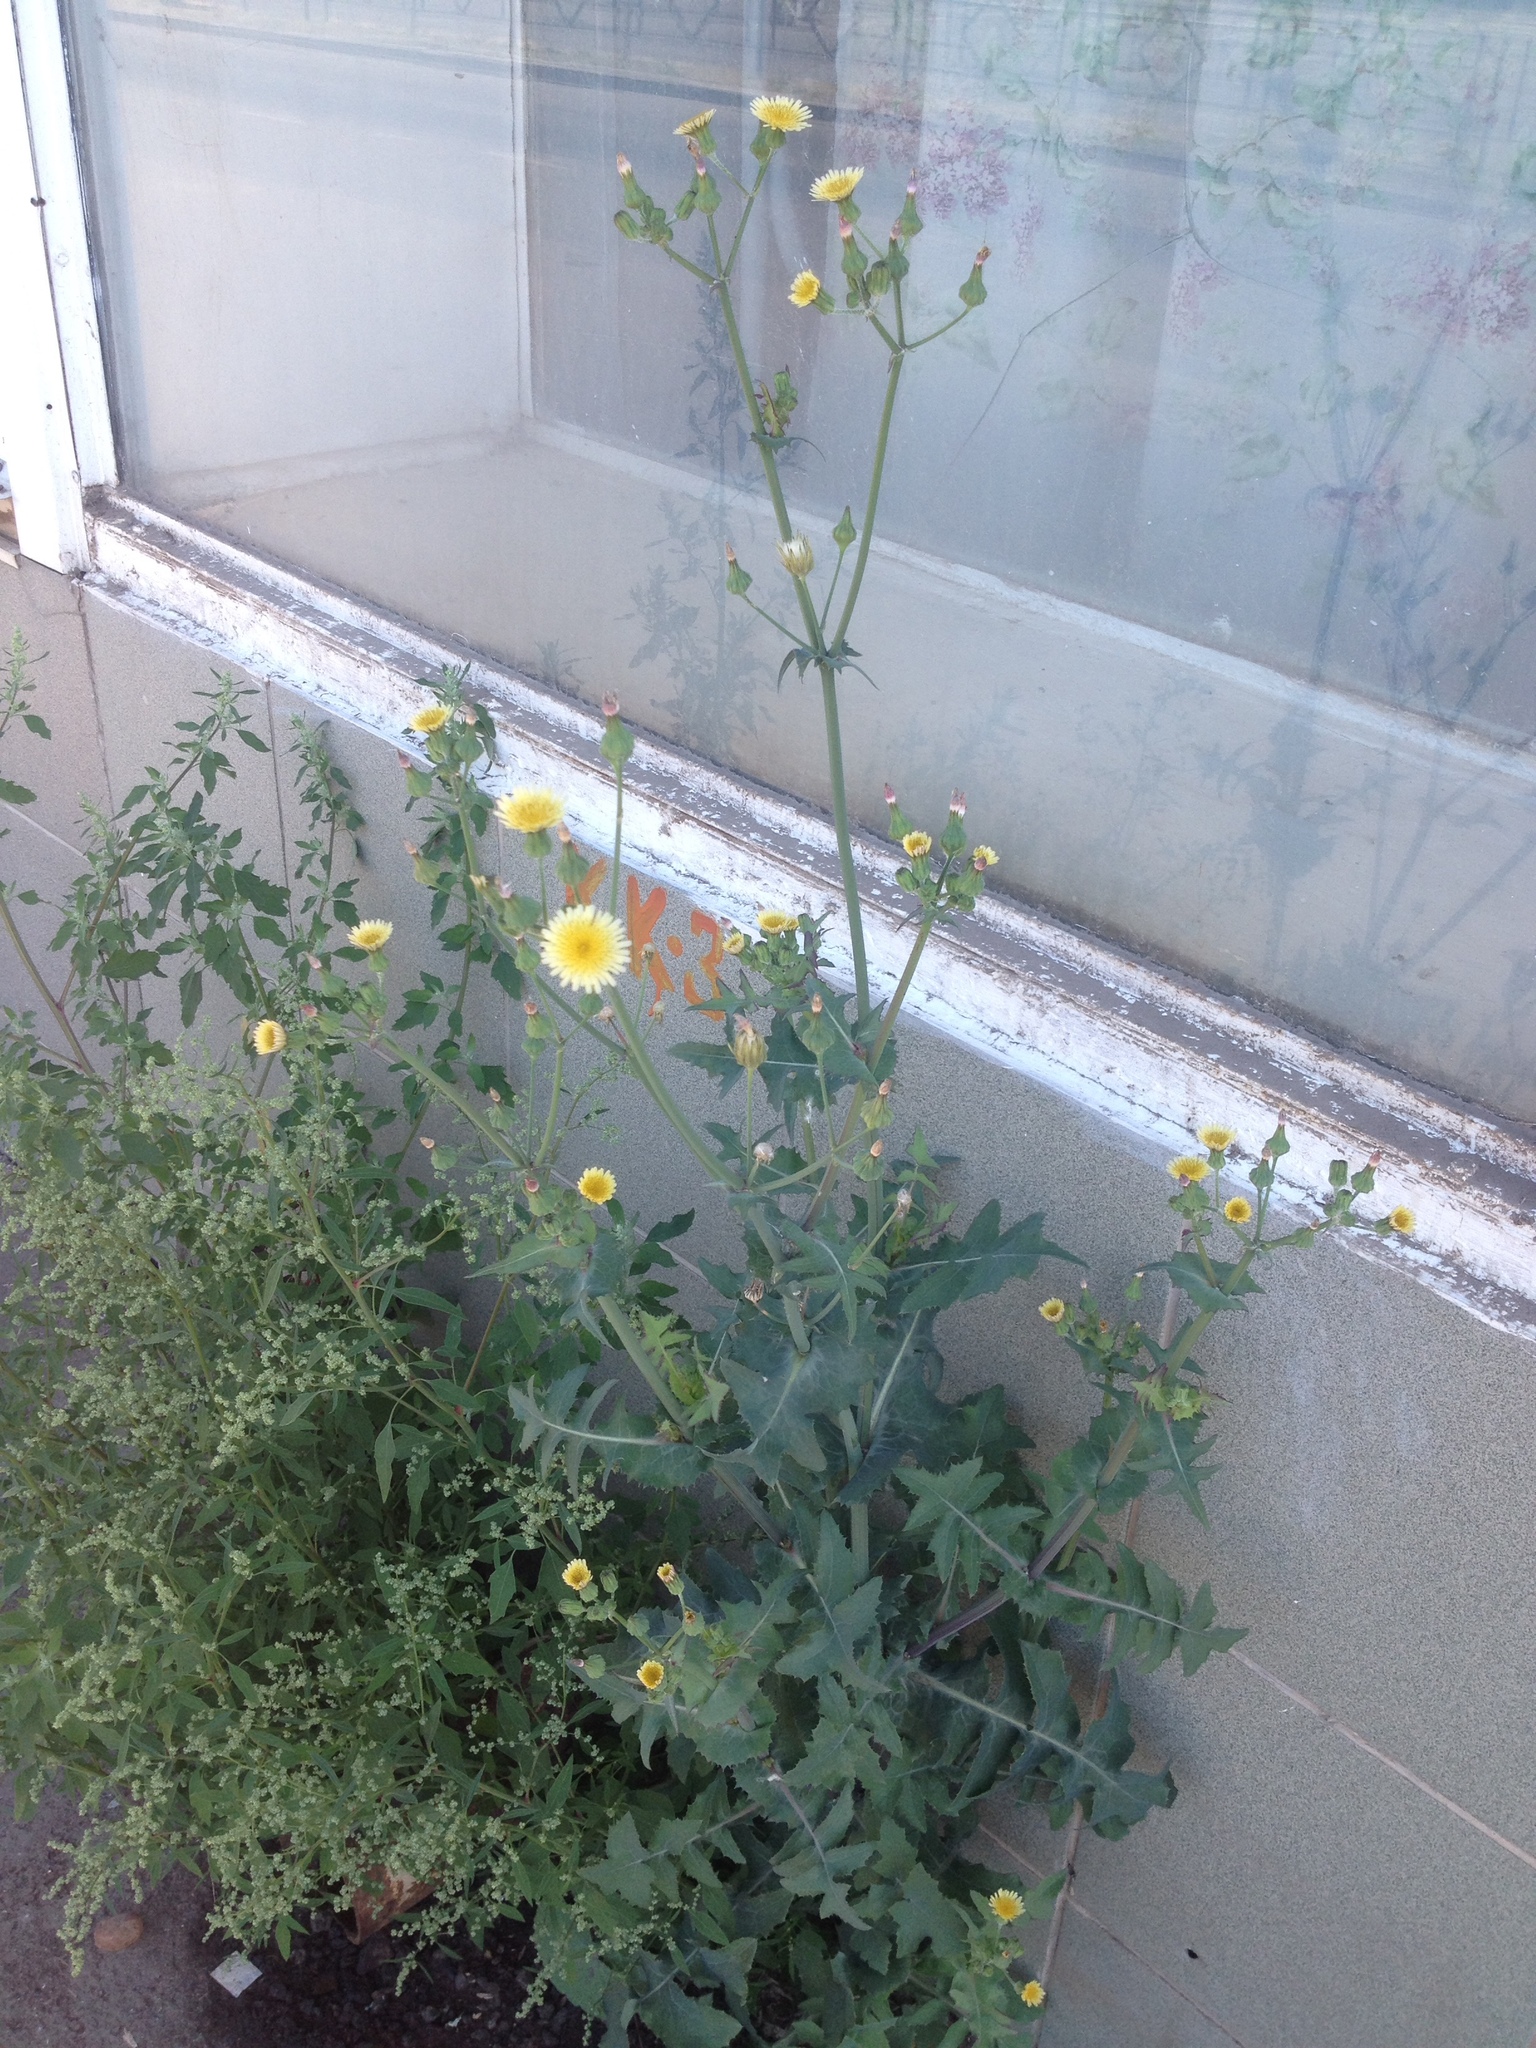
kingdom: Plantae
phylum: Tracheophyta
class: Magnoliopsida
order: Asterales
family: Asteraceae
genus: Sonchus
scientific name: Sonchus oleraceus
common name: Common sowthistle
